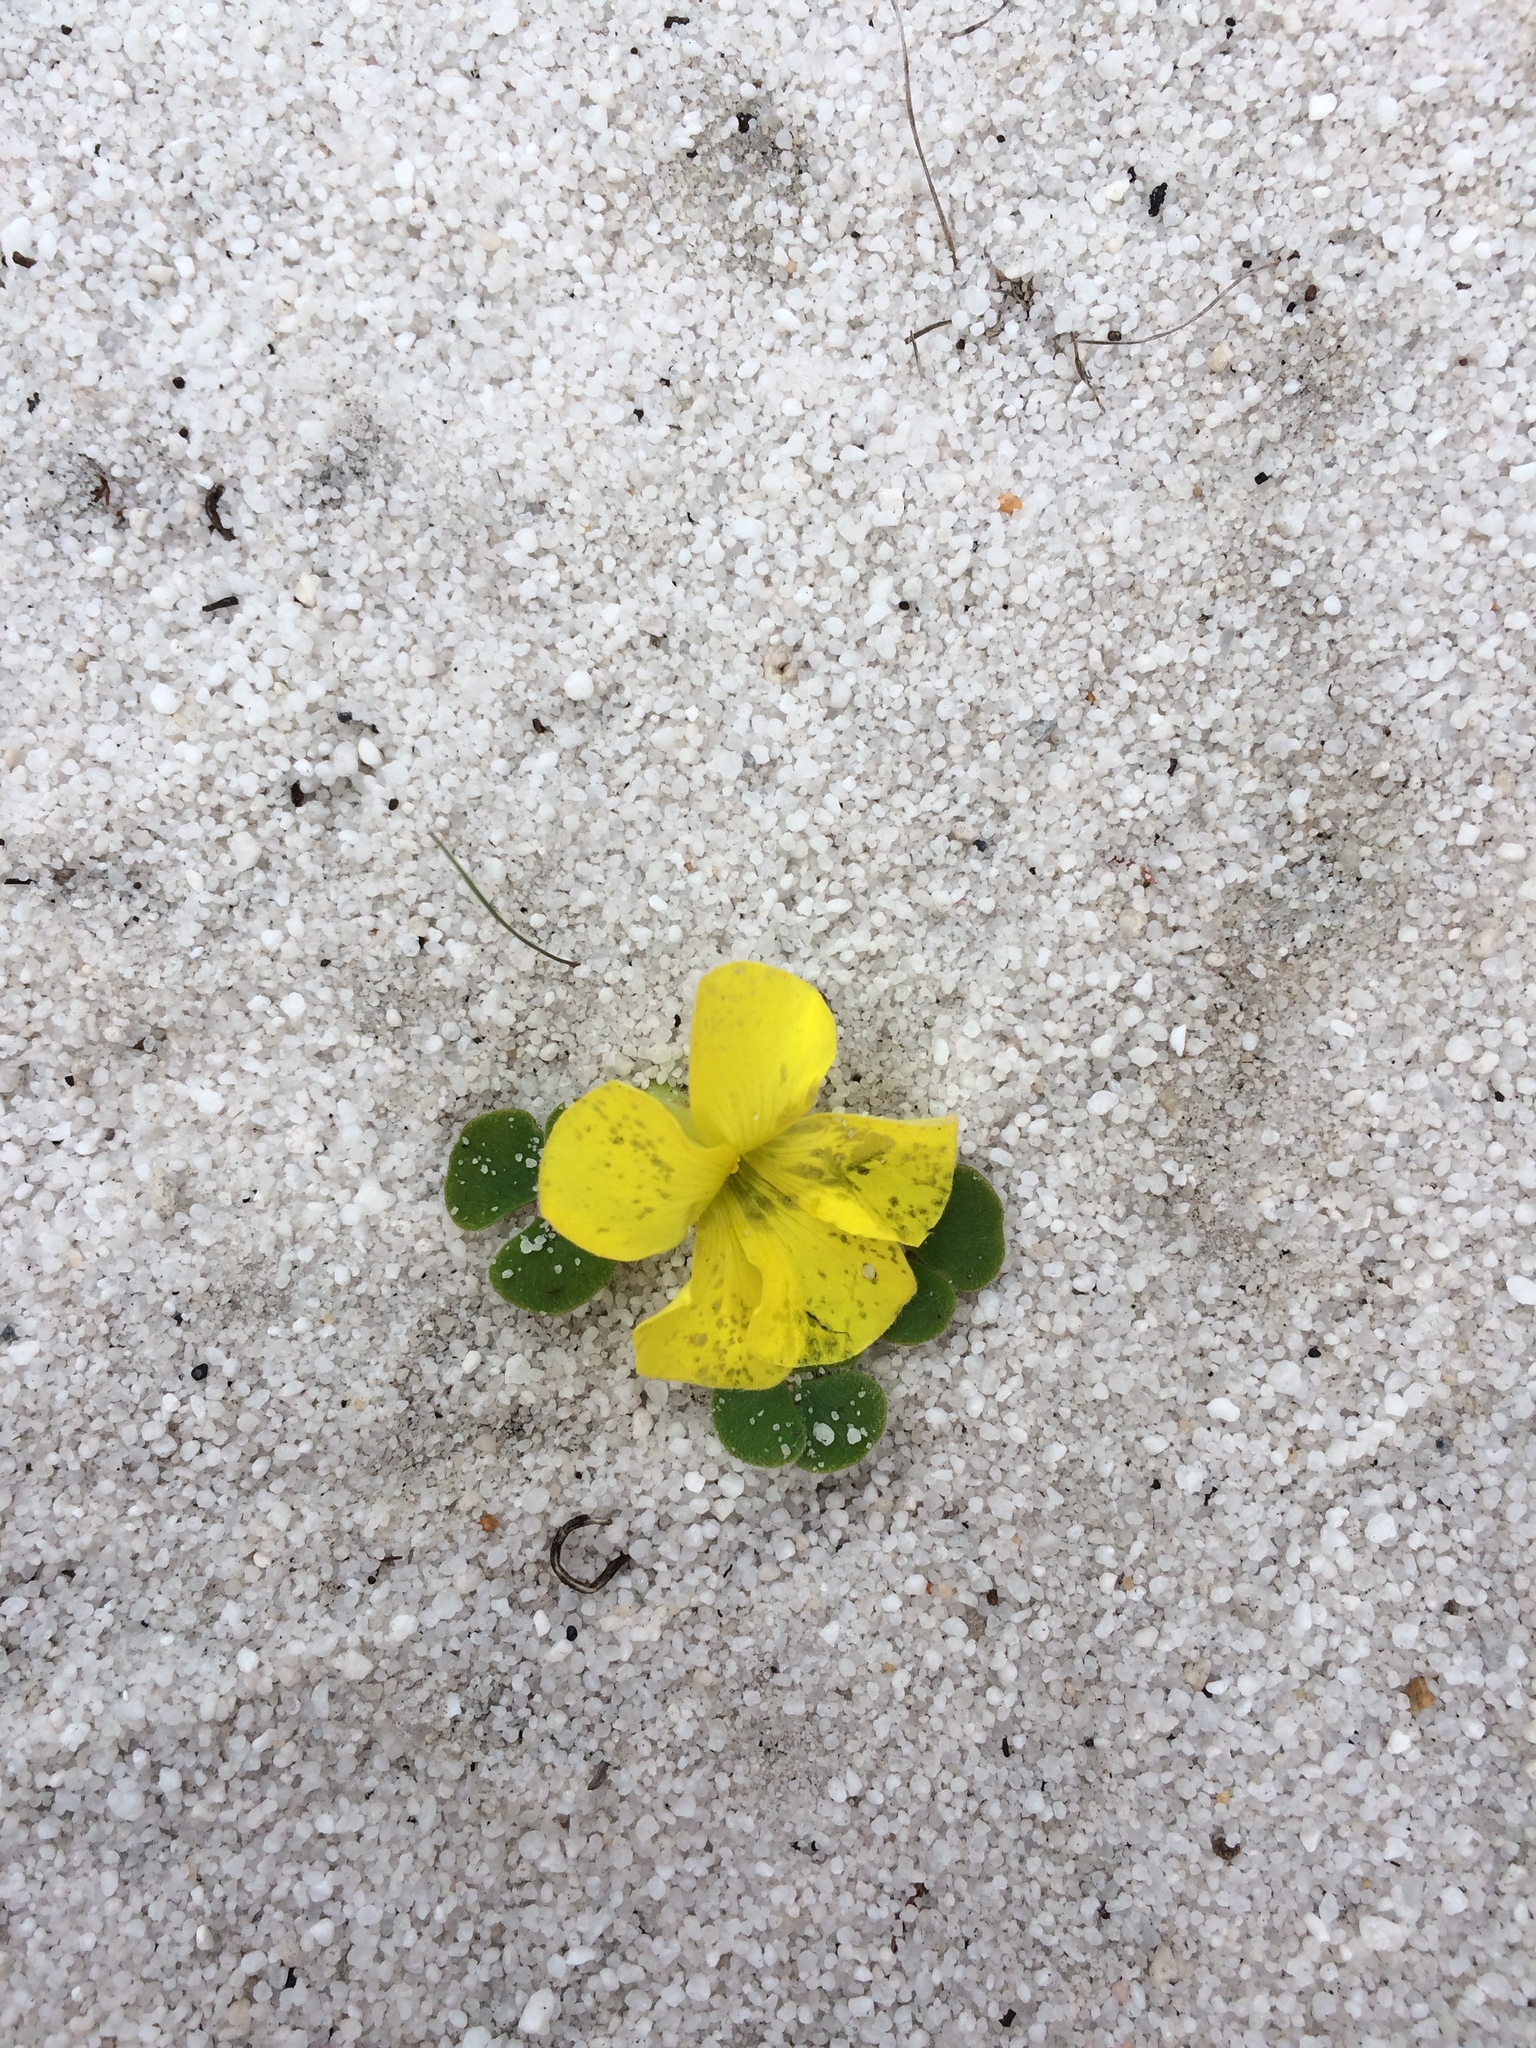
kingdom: Plantae
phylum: Tracheophyta
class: Magnoliopsida
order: Oxalidales
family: Oxalidaceae
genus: Oxalis
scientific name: Oxalis luteola
